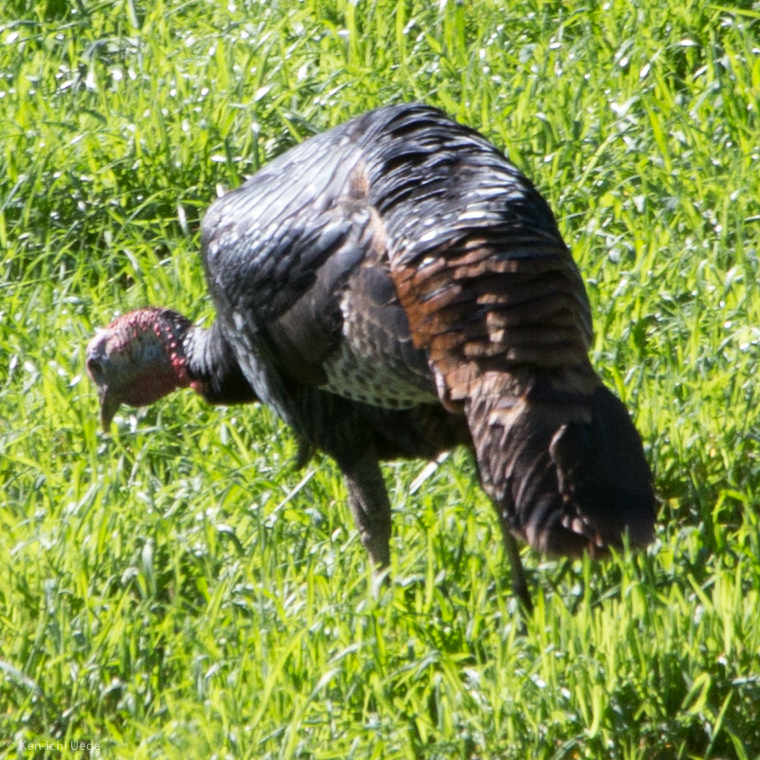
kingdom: Animalia
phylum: Chordata
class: Aves
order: Galliformes
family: Phasianidae
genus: Meleagris
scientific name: Meleagris gallopavo
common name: Wild turkey
